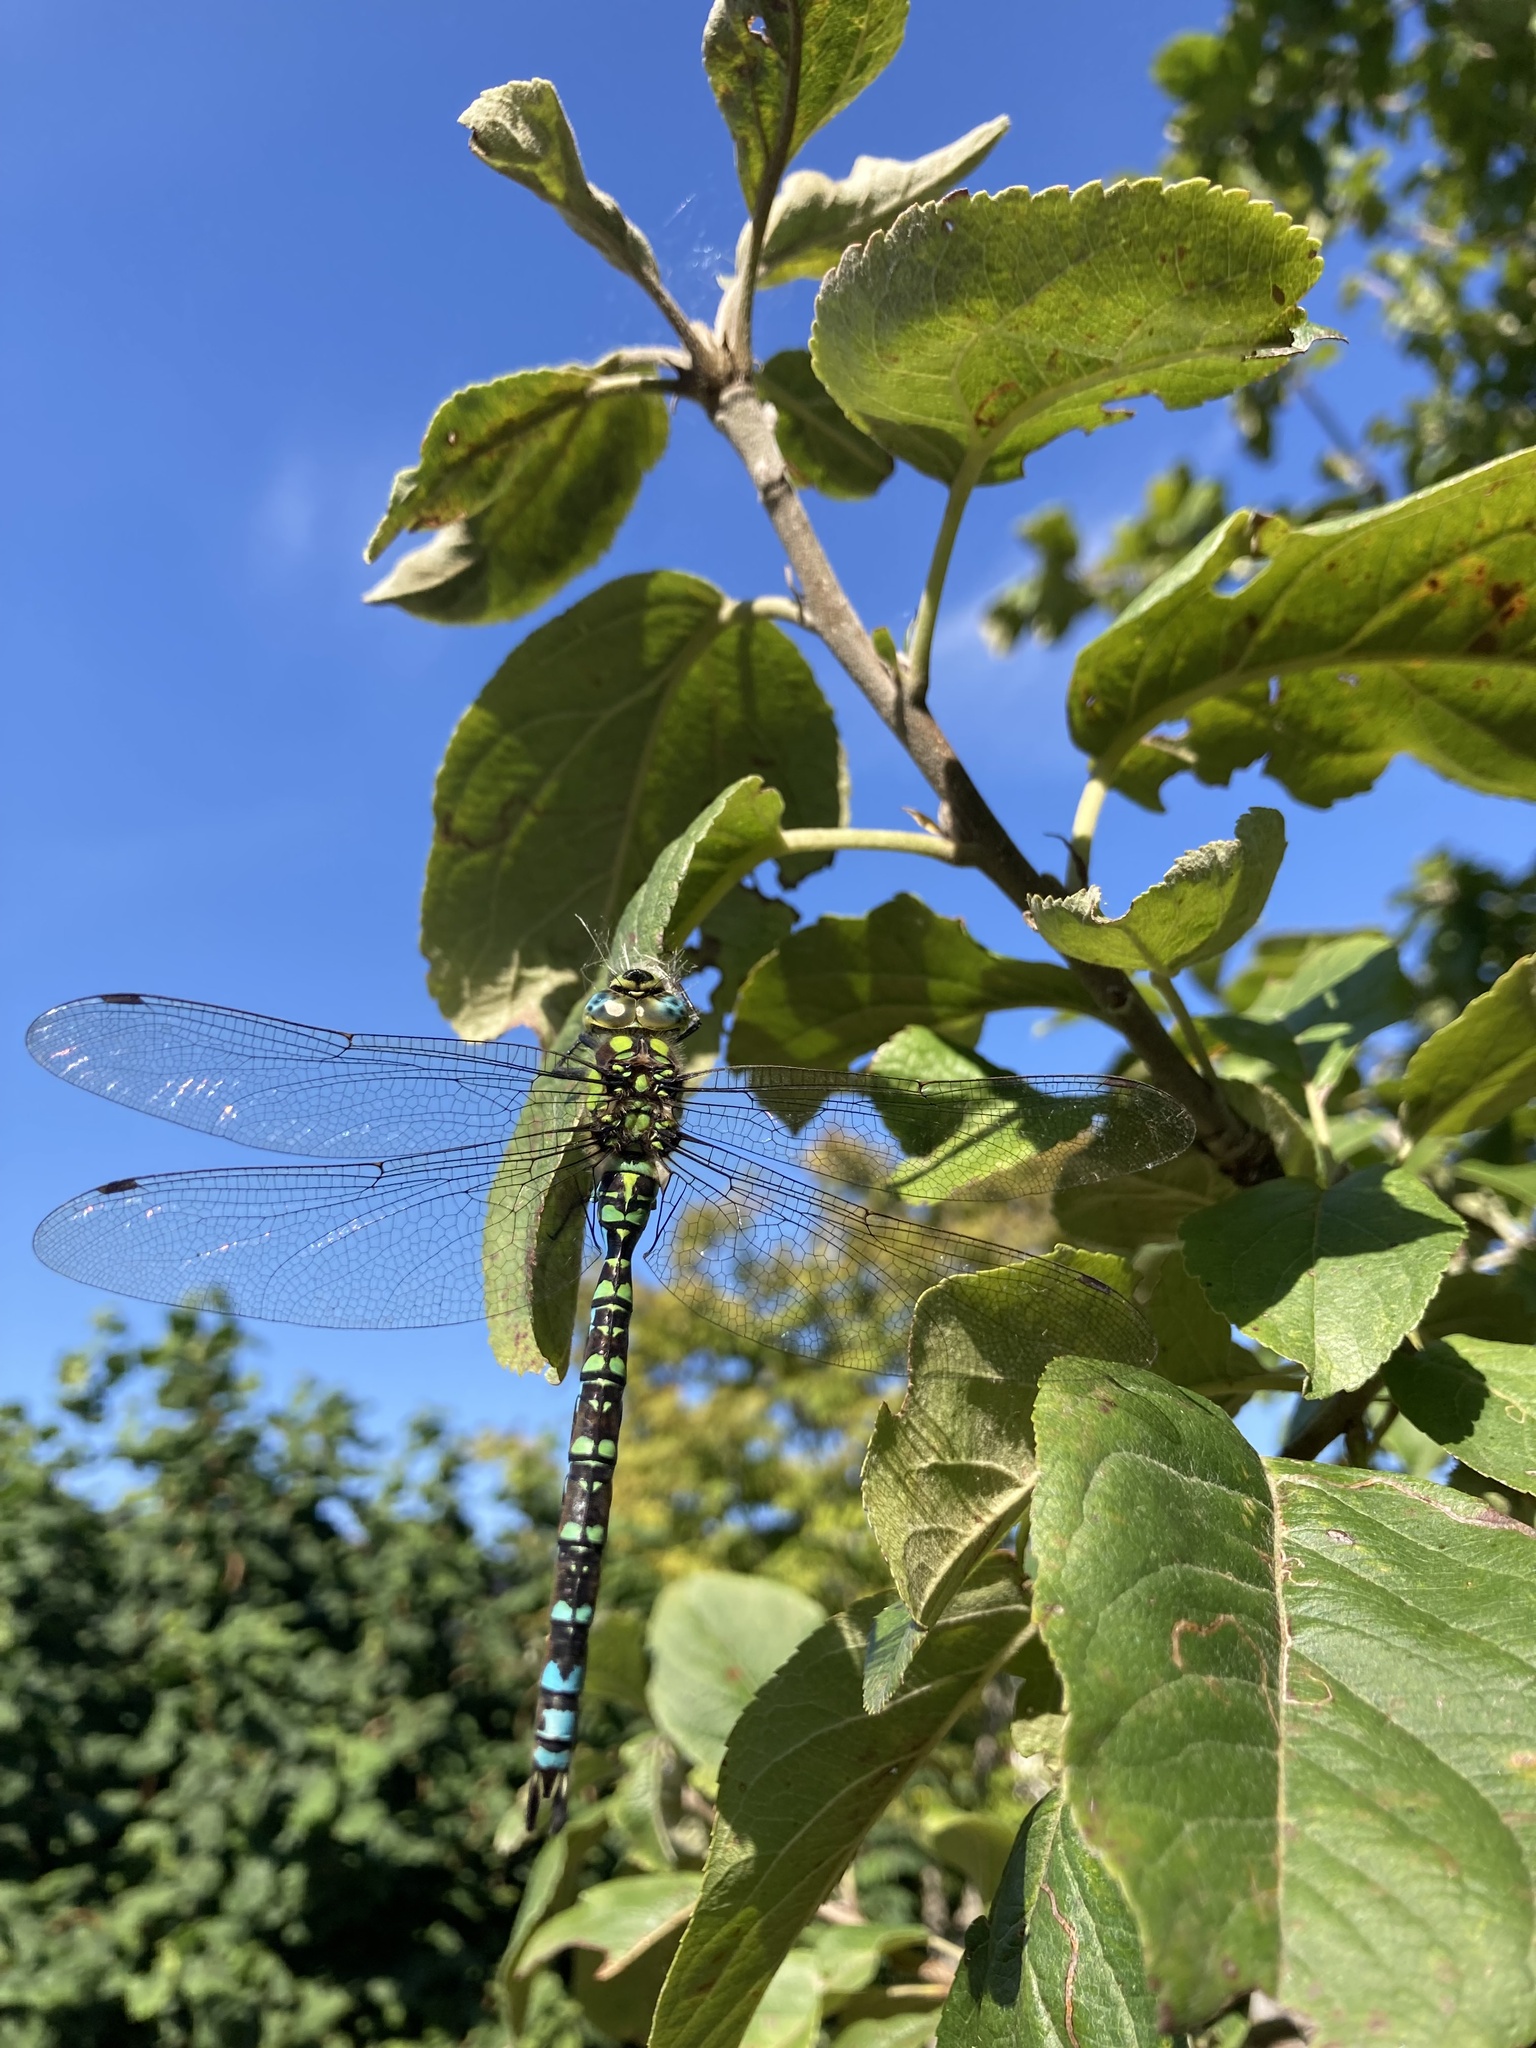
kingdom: Animalia
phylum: Arthropoda
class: Insecta
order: Odonata
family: Aeshnidae
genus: Aeshna
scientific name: Aeshna cyanea
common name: Southern hawker
